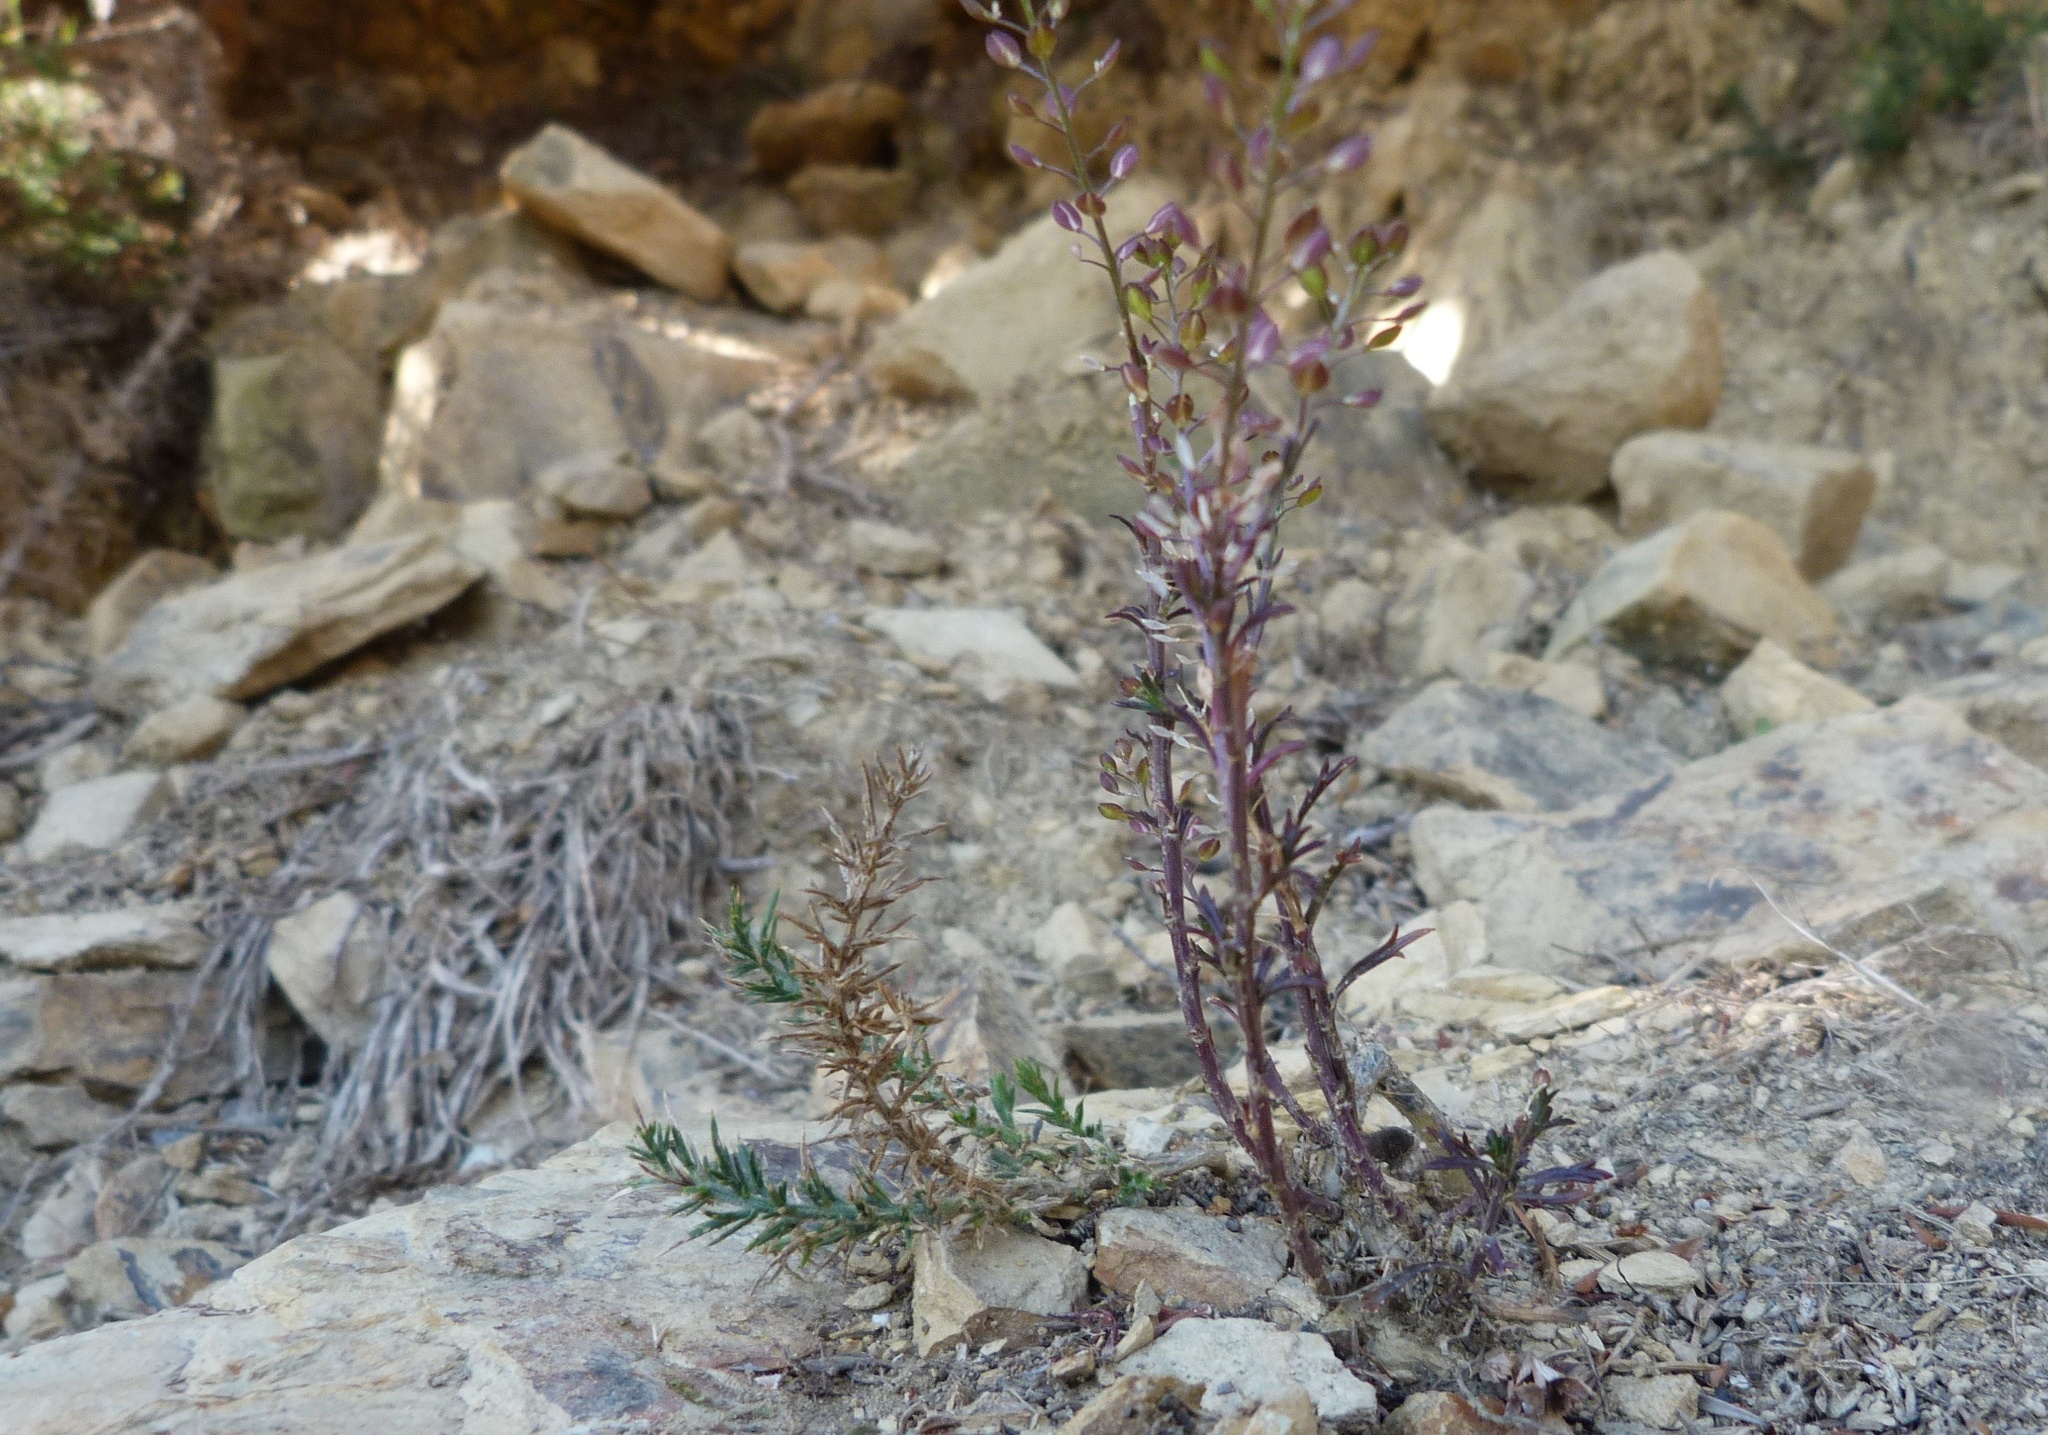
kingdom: Plantae
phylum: Tracheophyta
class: Magnoliopsida
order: Brassicales
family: Brassicaceae
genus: Lepidium
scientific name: Lepidium bonariense
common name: Argentine pepperwort
